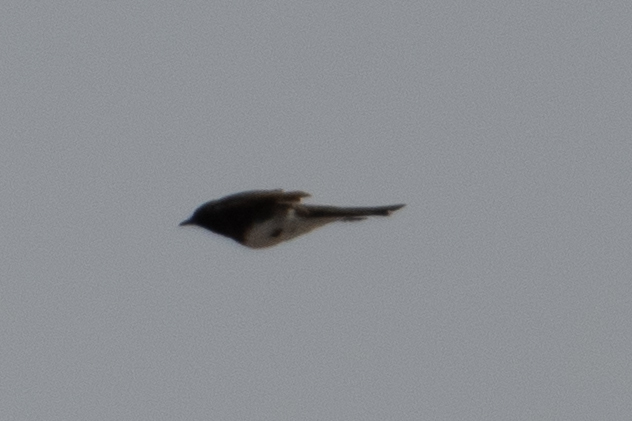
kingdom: Animalia
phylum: Chordata
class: Aves
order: Passeriformes
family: Tyrannidae
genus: Sayornis
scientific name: Sayornis nigricans
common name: Black phoebe
